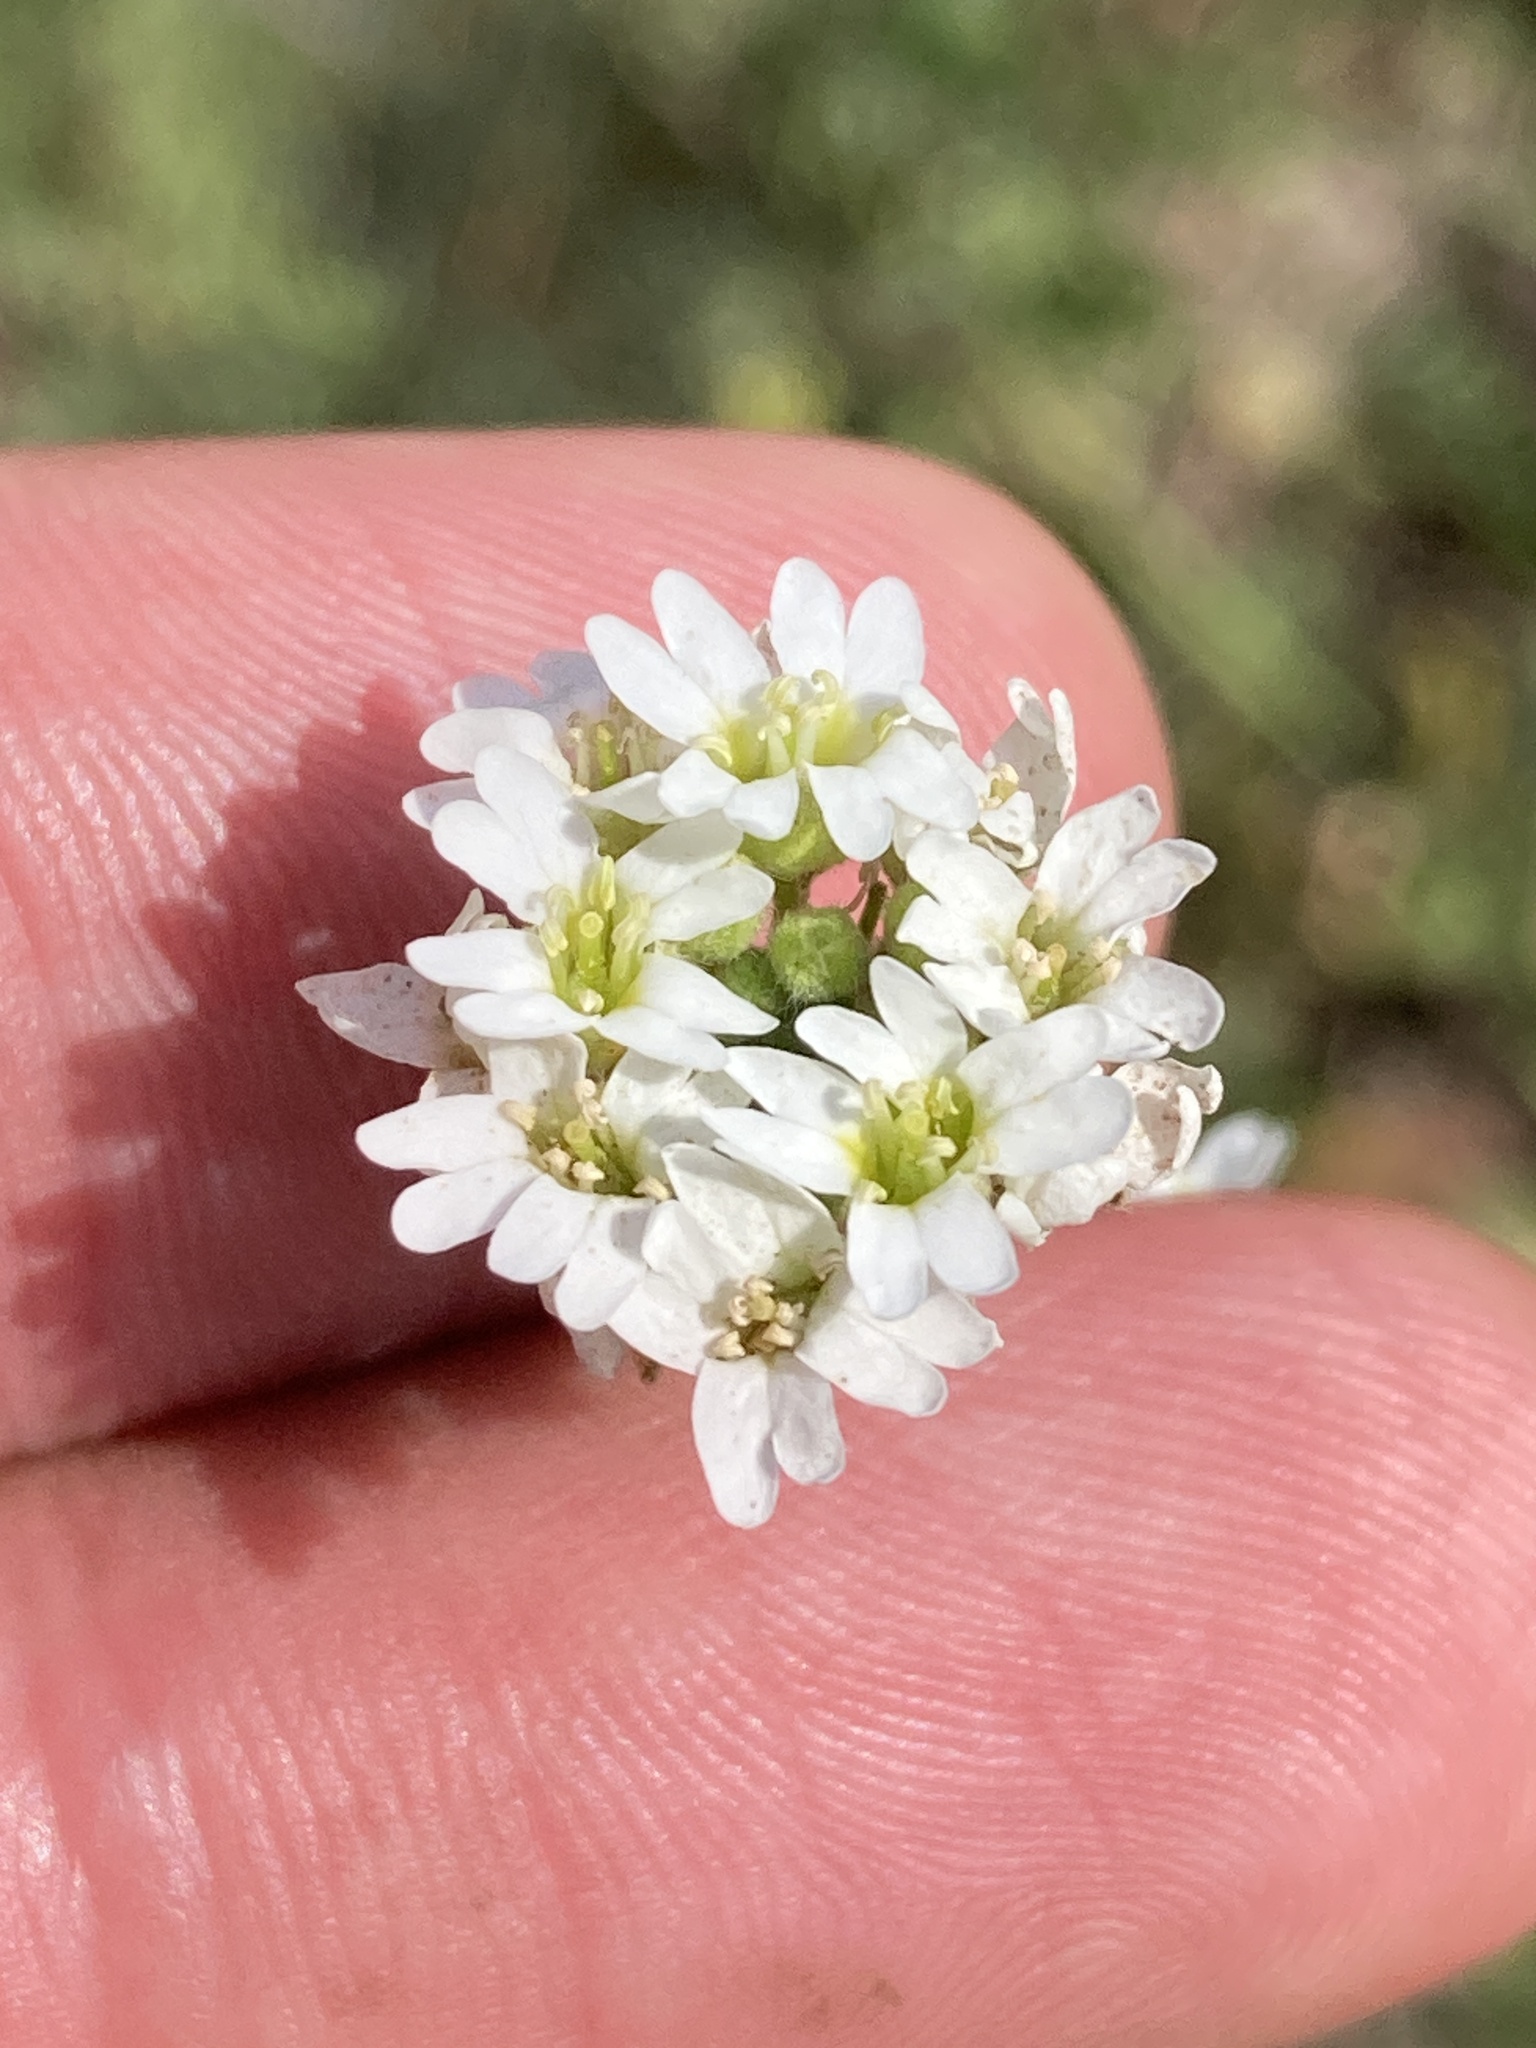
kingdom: Plantae
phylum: Tracheophyta
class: Magnoliopsida
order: Brassicales
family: Brassicaceae
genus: Berteroa
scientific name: Berteroa incana
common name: Hoary alison
